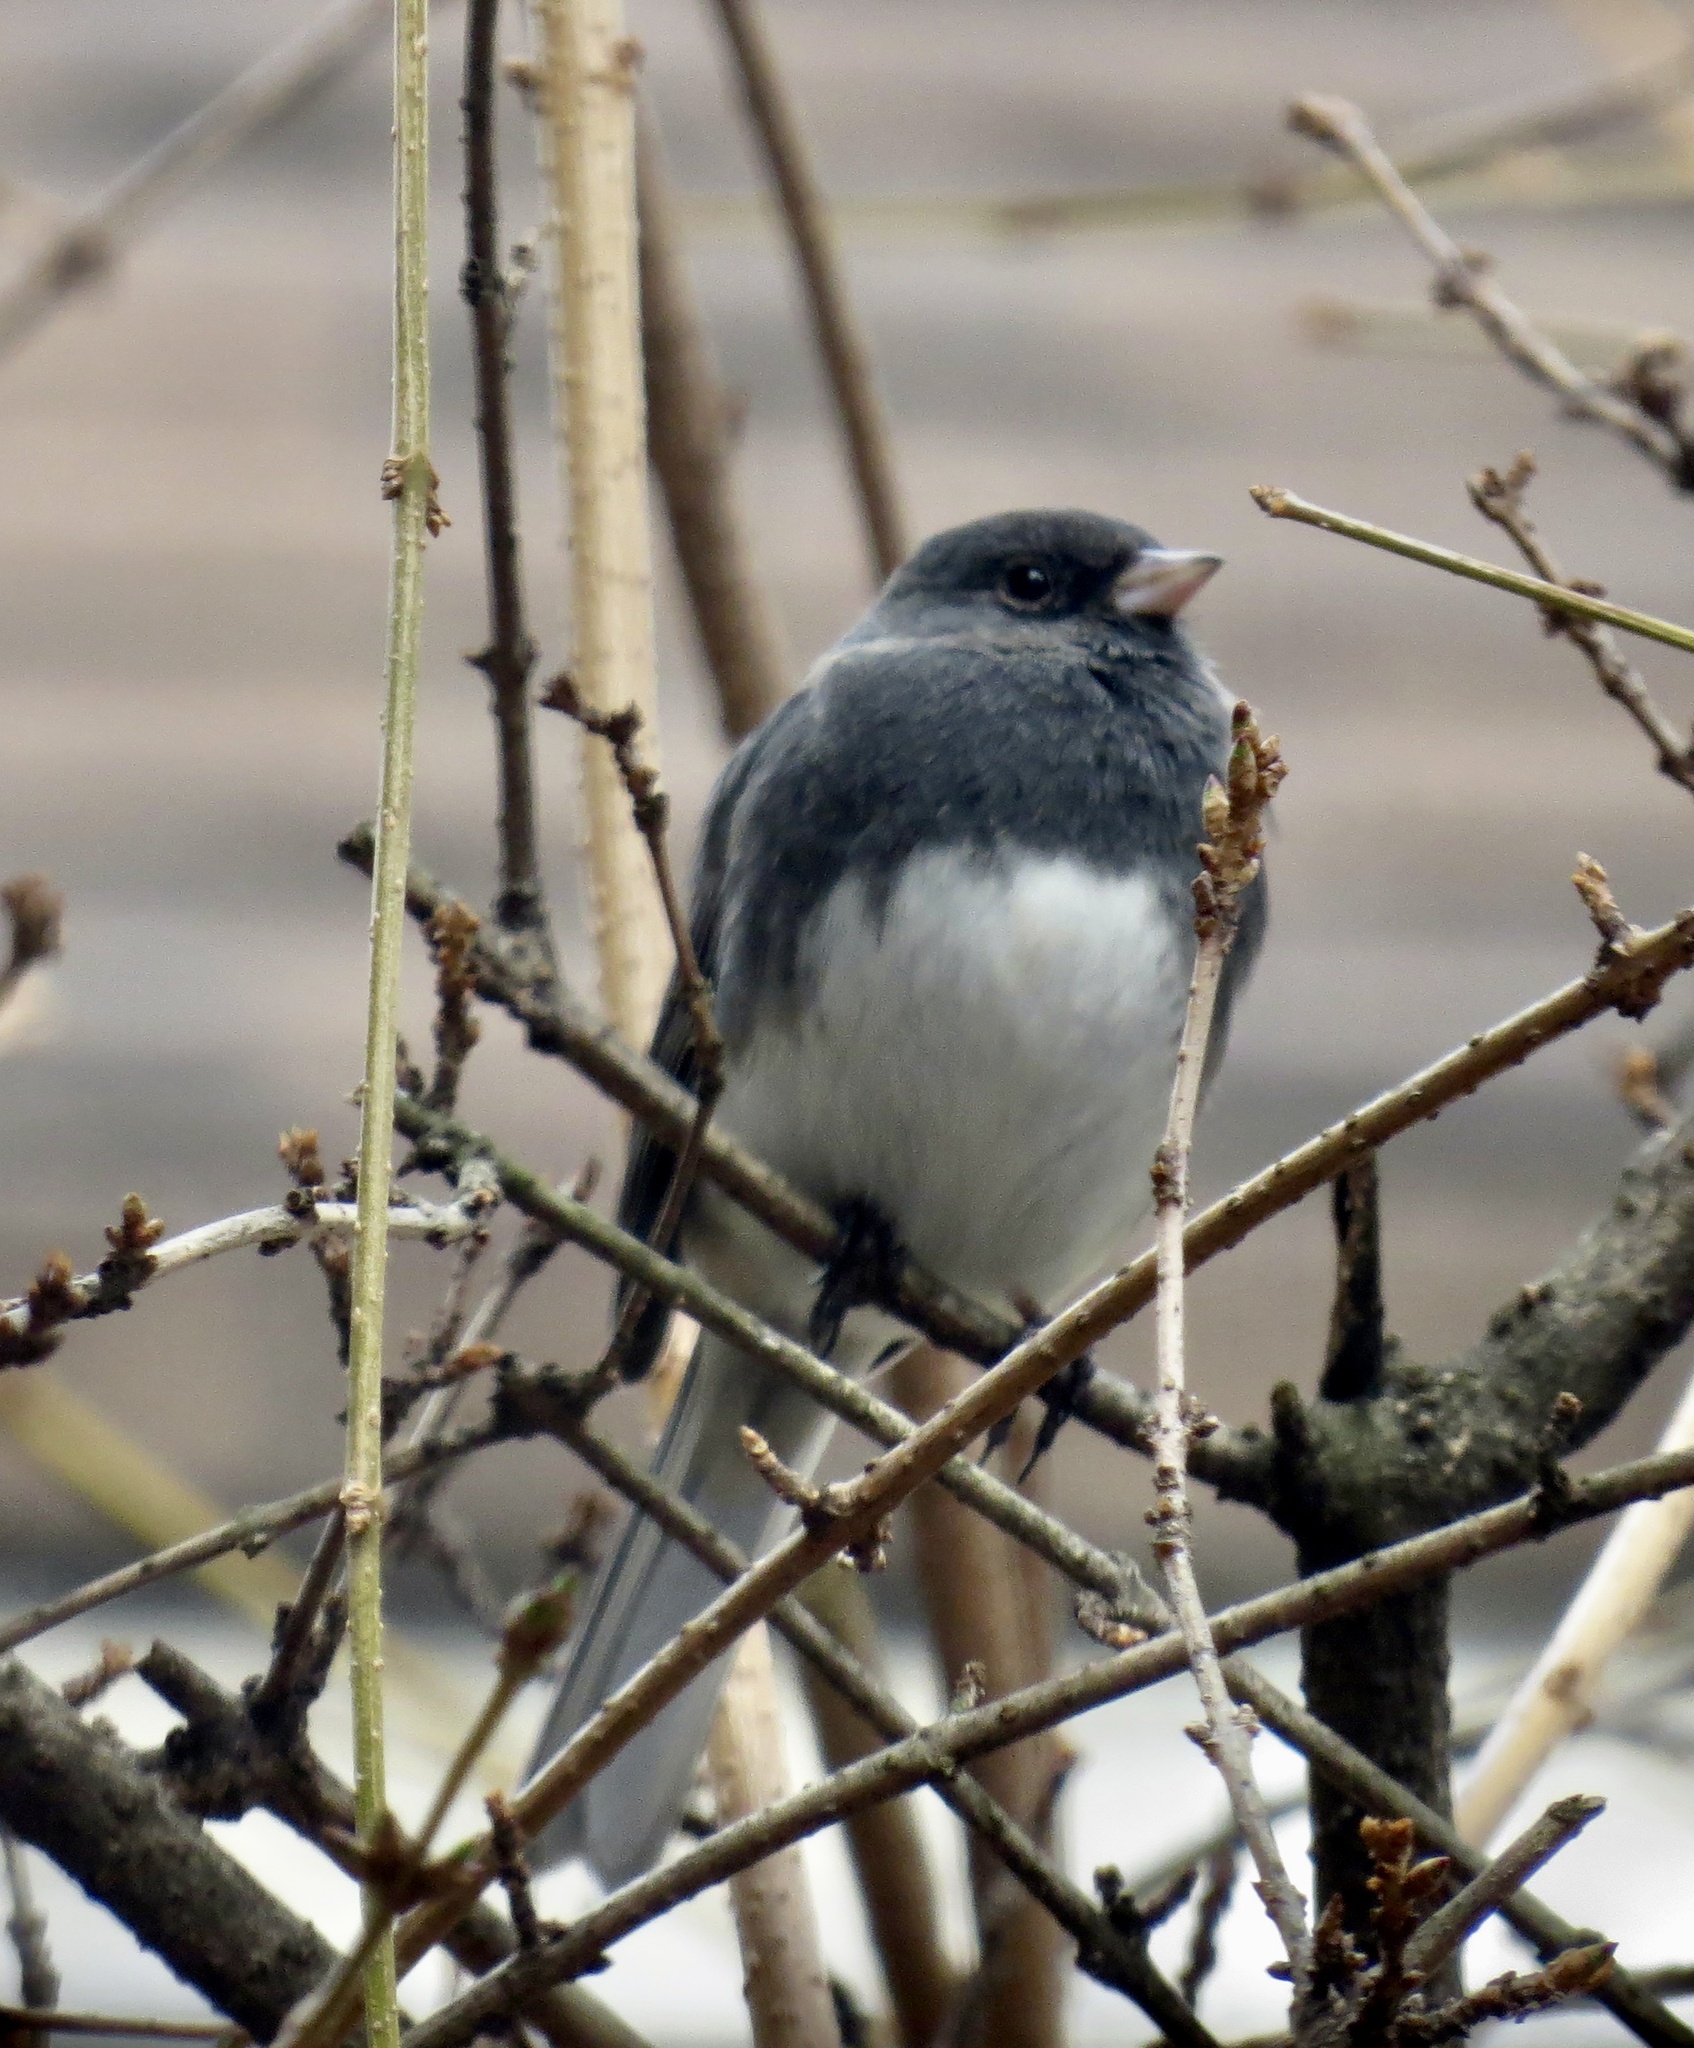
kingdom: Animalia
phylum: Chordata
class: Aves
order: Passeriformes
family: Passerellidae
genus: Junco
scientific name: Junco hyemalis
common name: Dark-eyed junco
